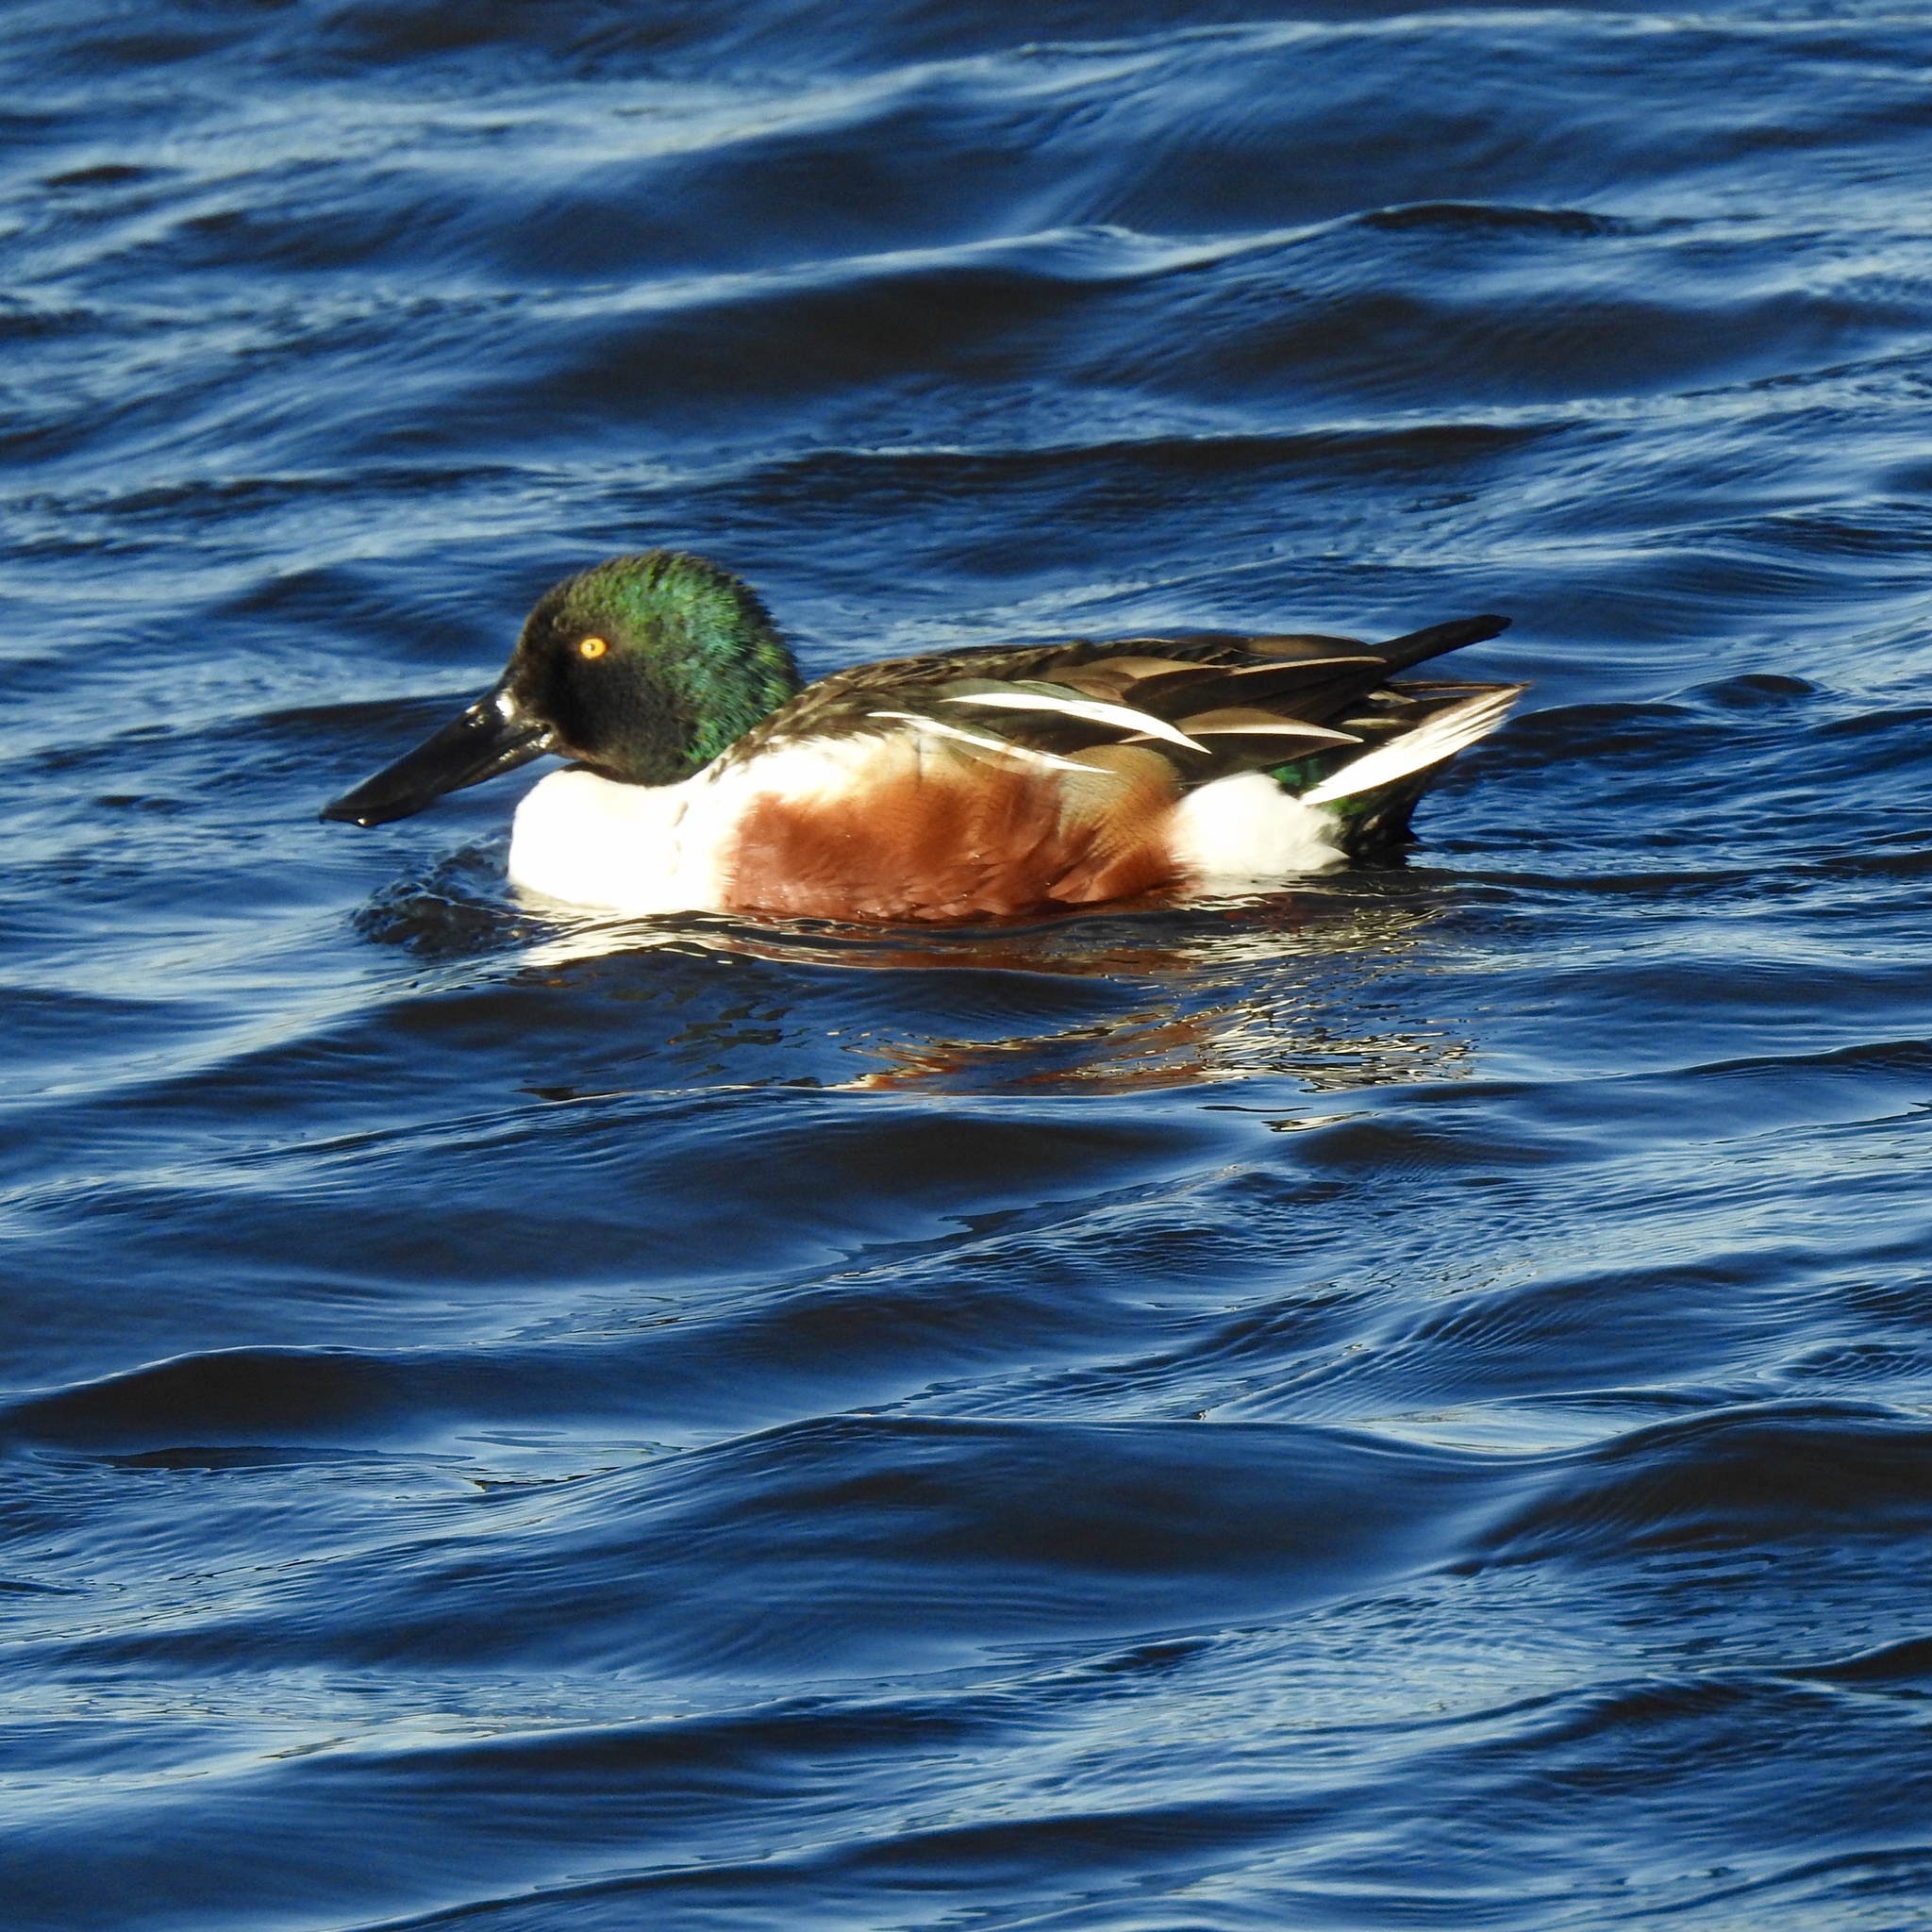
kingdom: Animalia
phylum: Chordata
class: Aves
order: Anseriformes
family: Anatidae
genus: Spatula
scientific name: Spatula clypeata
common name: Northern shoveler
